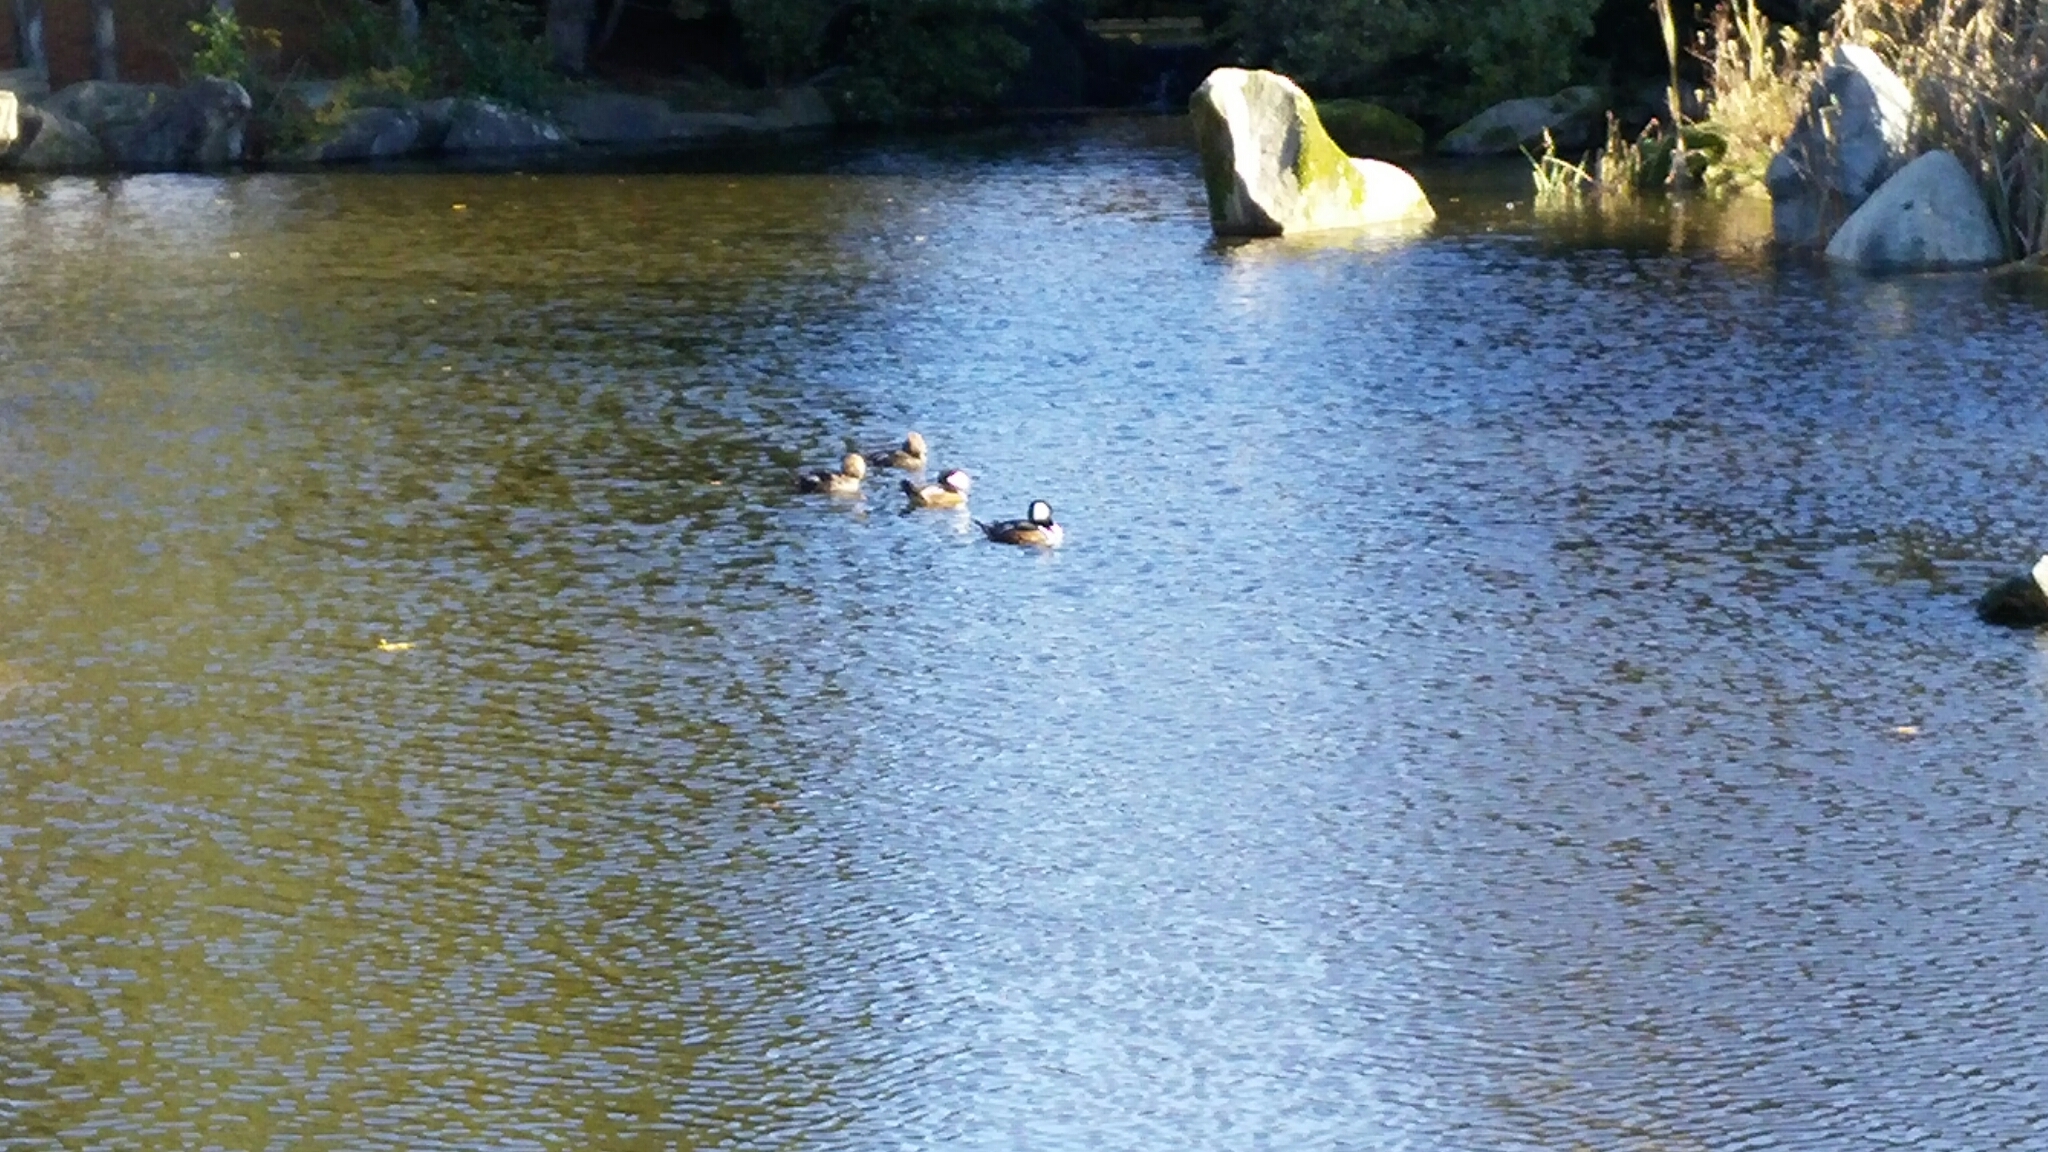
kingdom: Animalia
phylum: Chordata
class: Aves
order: Anseriformes
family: Anatidae
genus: Lophodytes
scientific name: Lophodytes cucullatus
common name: Hooded merganser
